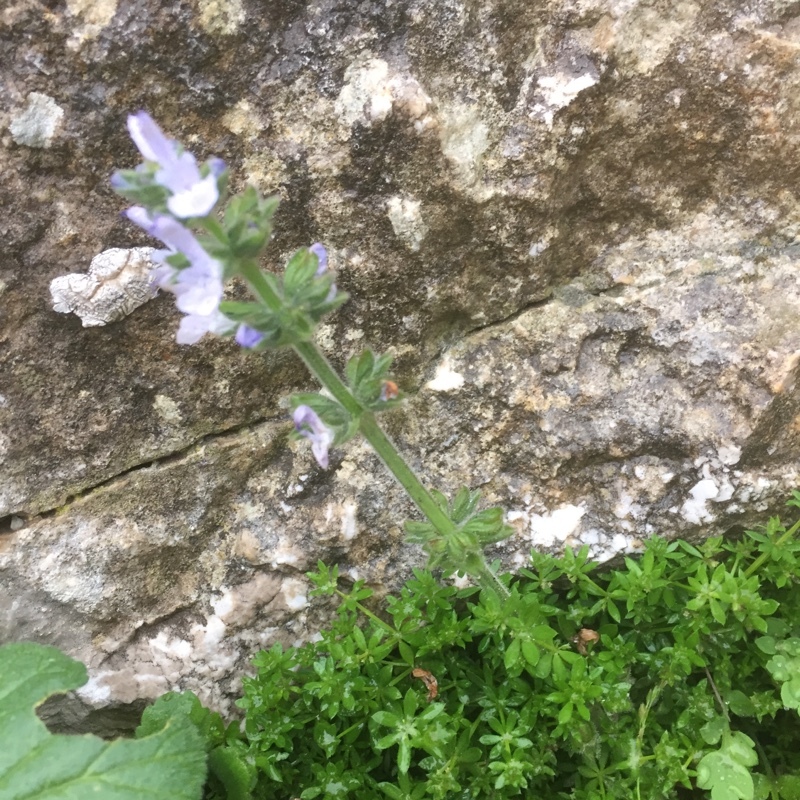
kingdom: Plantae
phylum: Tracheophyta
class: Magnoliopsida
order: Lamiales
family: Lamiaceae
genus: Salvia
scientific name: Salvia clandestina
